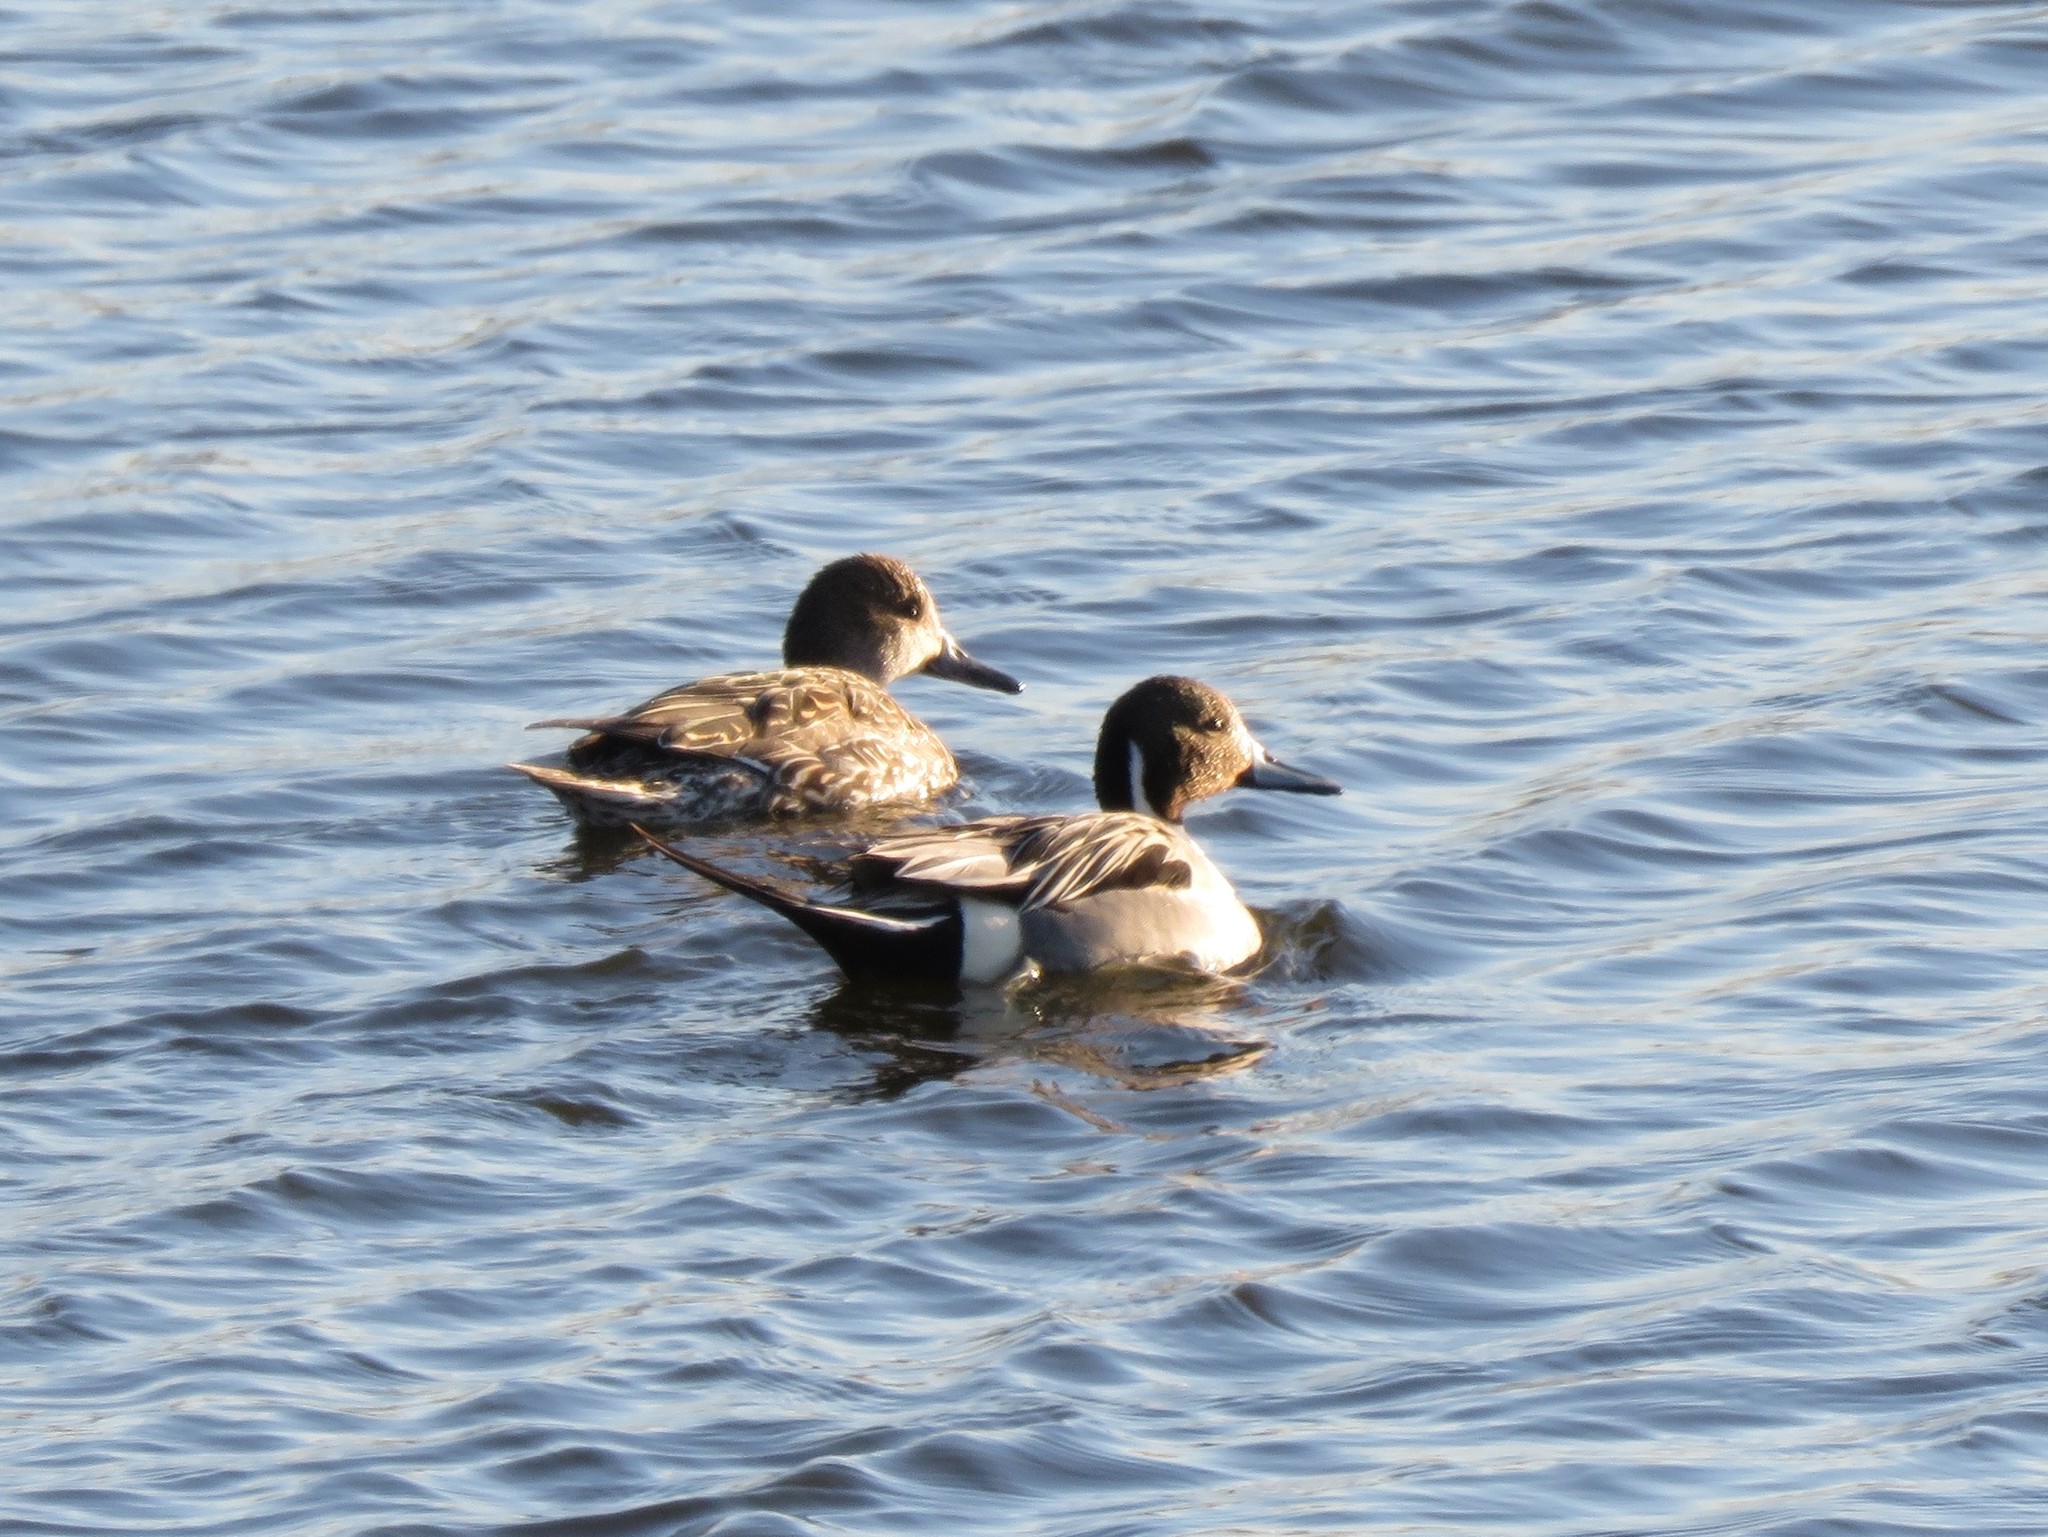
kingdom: Animalia
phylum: Chordata
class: Aves
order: Anseriformes
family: Anatidae
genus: Anas
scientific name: Anas acuta
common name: Northern pintail
